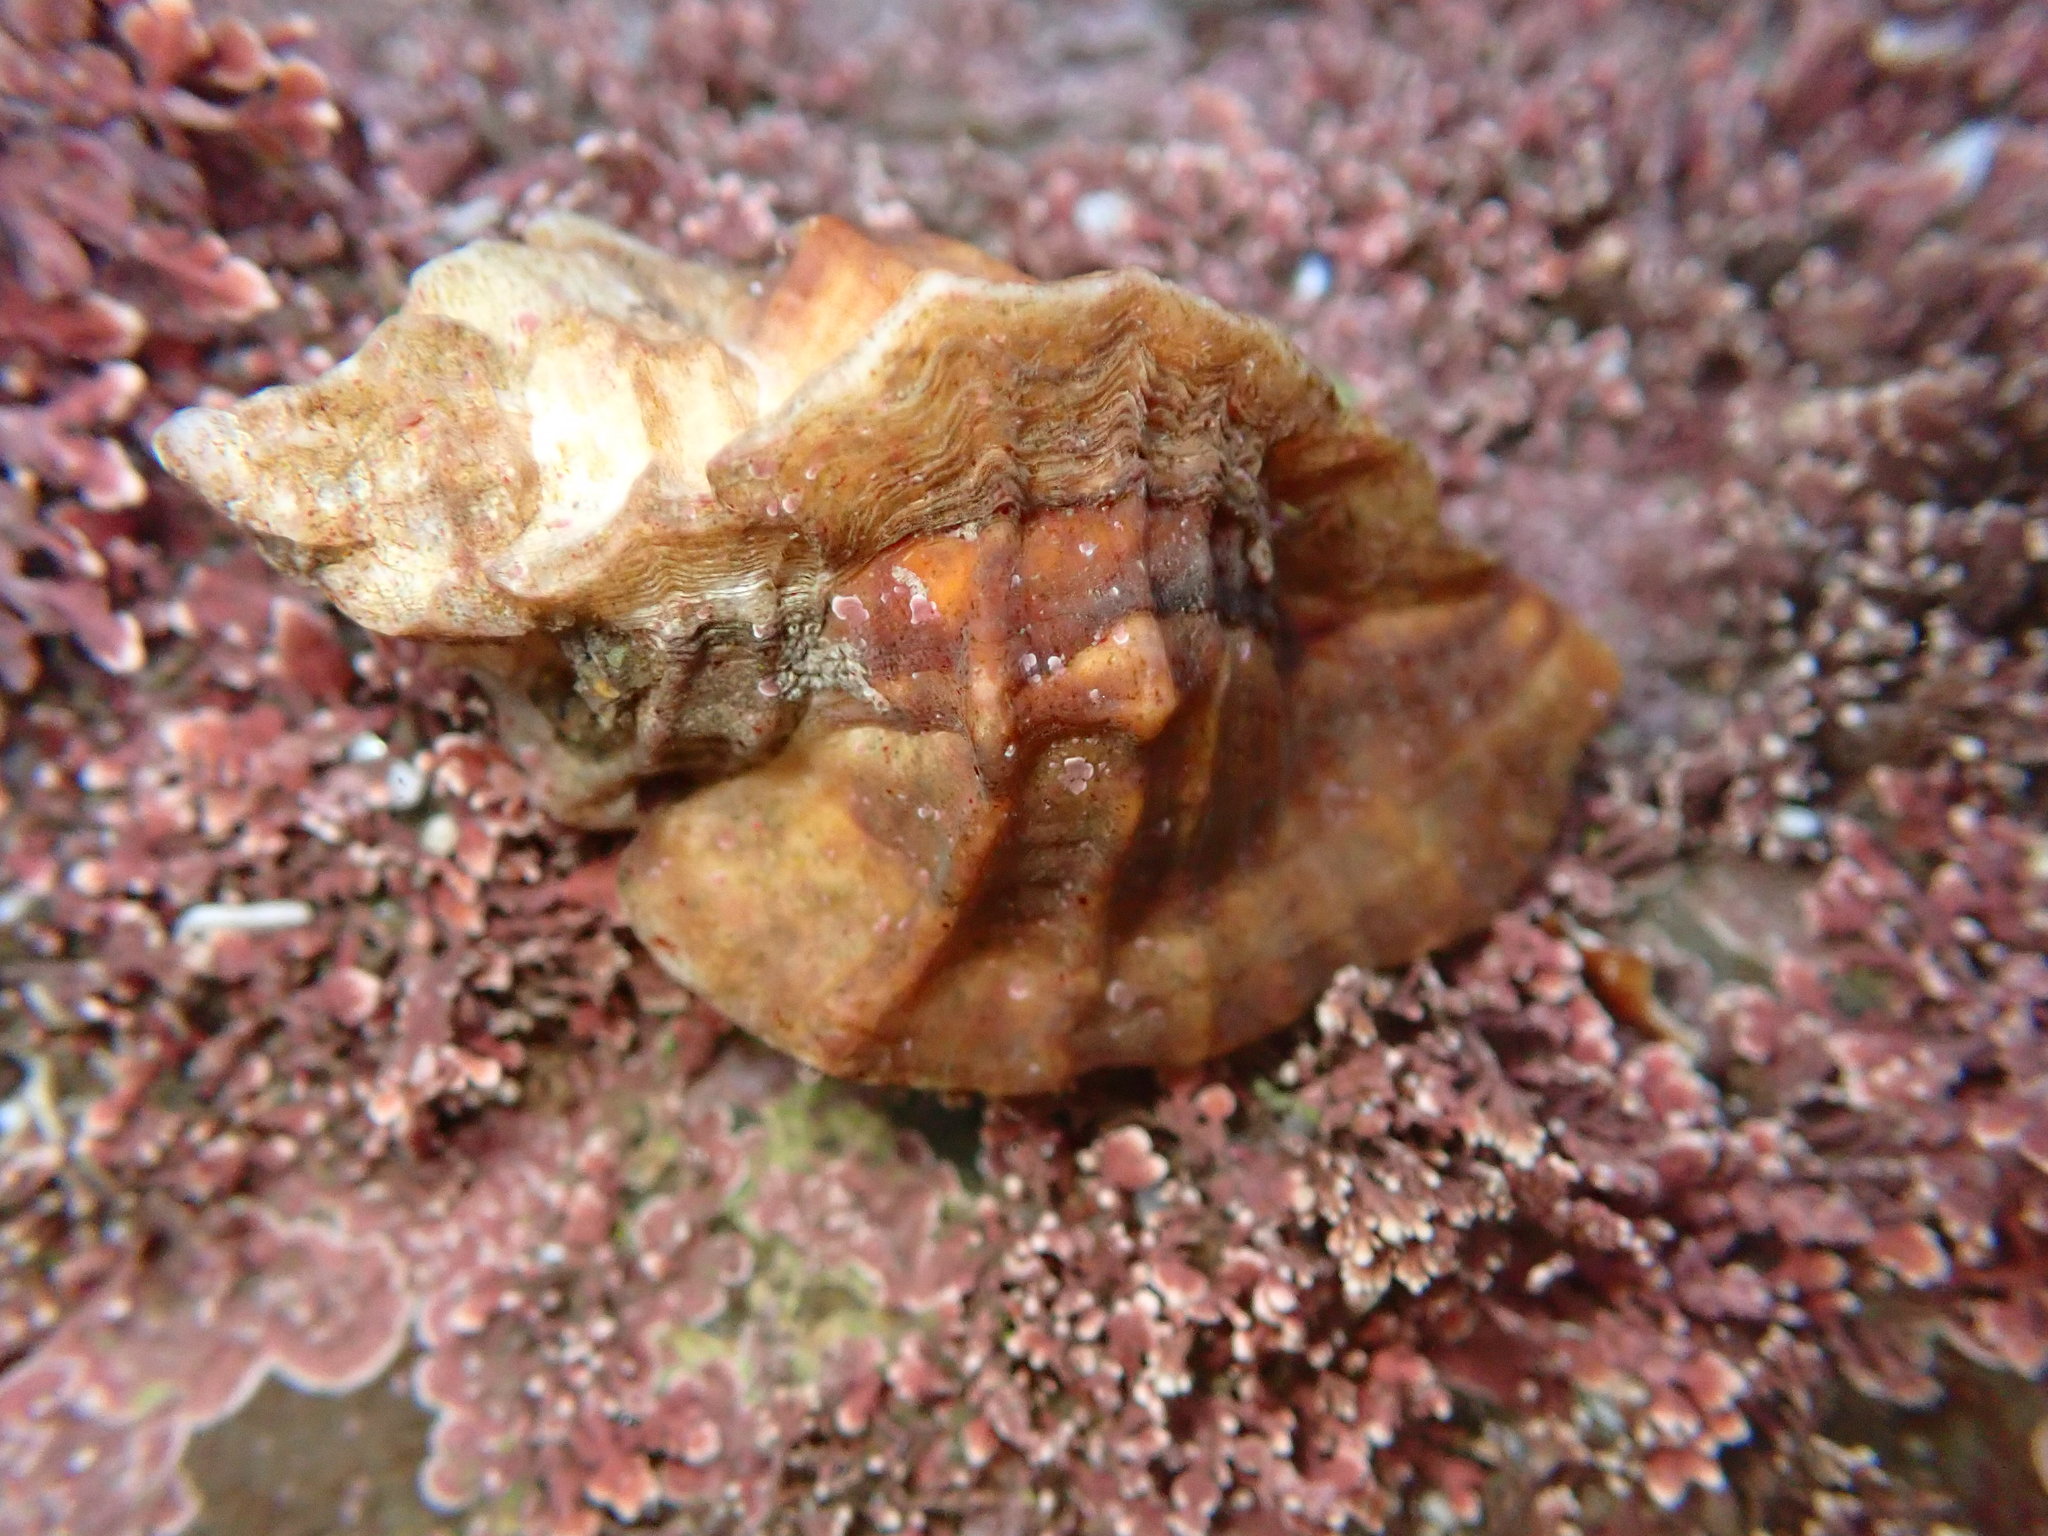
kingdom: Animalia
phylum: Mollusca
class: Gastropoda
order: Neogastropoda
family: Muricidae
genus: Ceratostoma
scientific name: Ceratostoma foliatum
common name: Foliate thorn purpura
